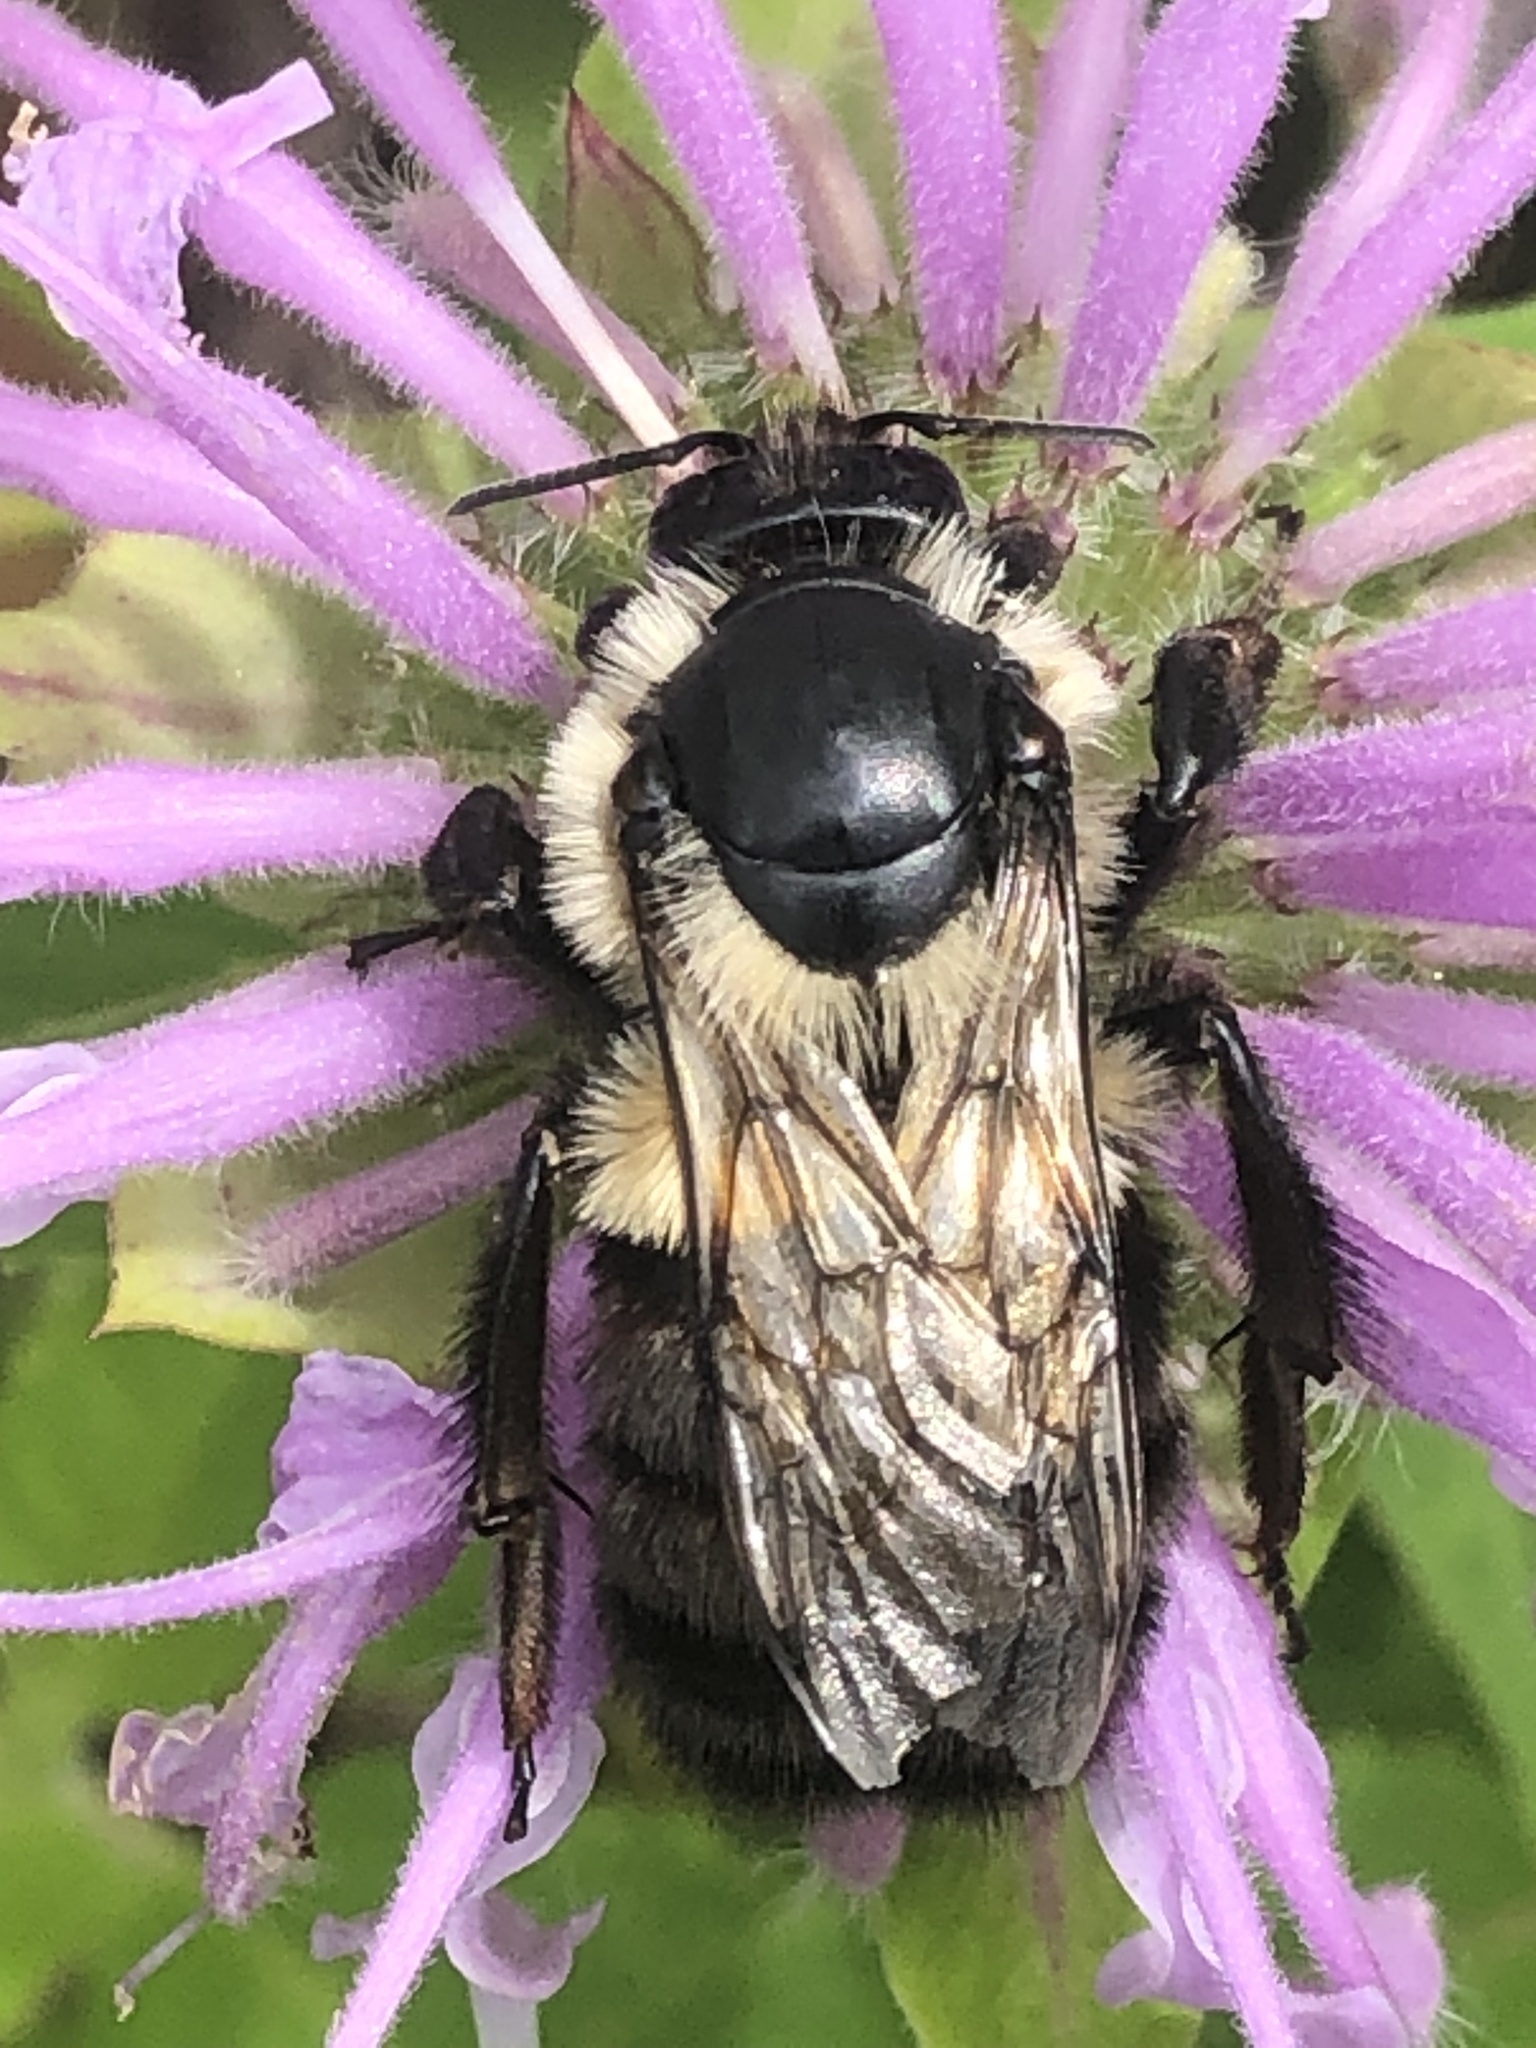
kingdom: Animalia
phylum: Arthropoda
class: Insecta
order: Hymenoptera
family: Apidae
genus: Bombus
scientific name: Bombus impatiens
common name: Common eastern bumble bee
